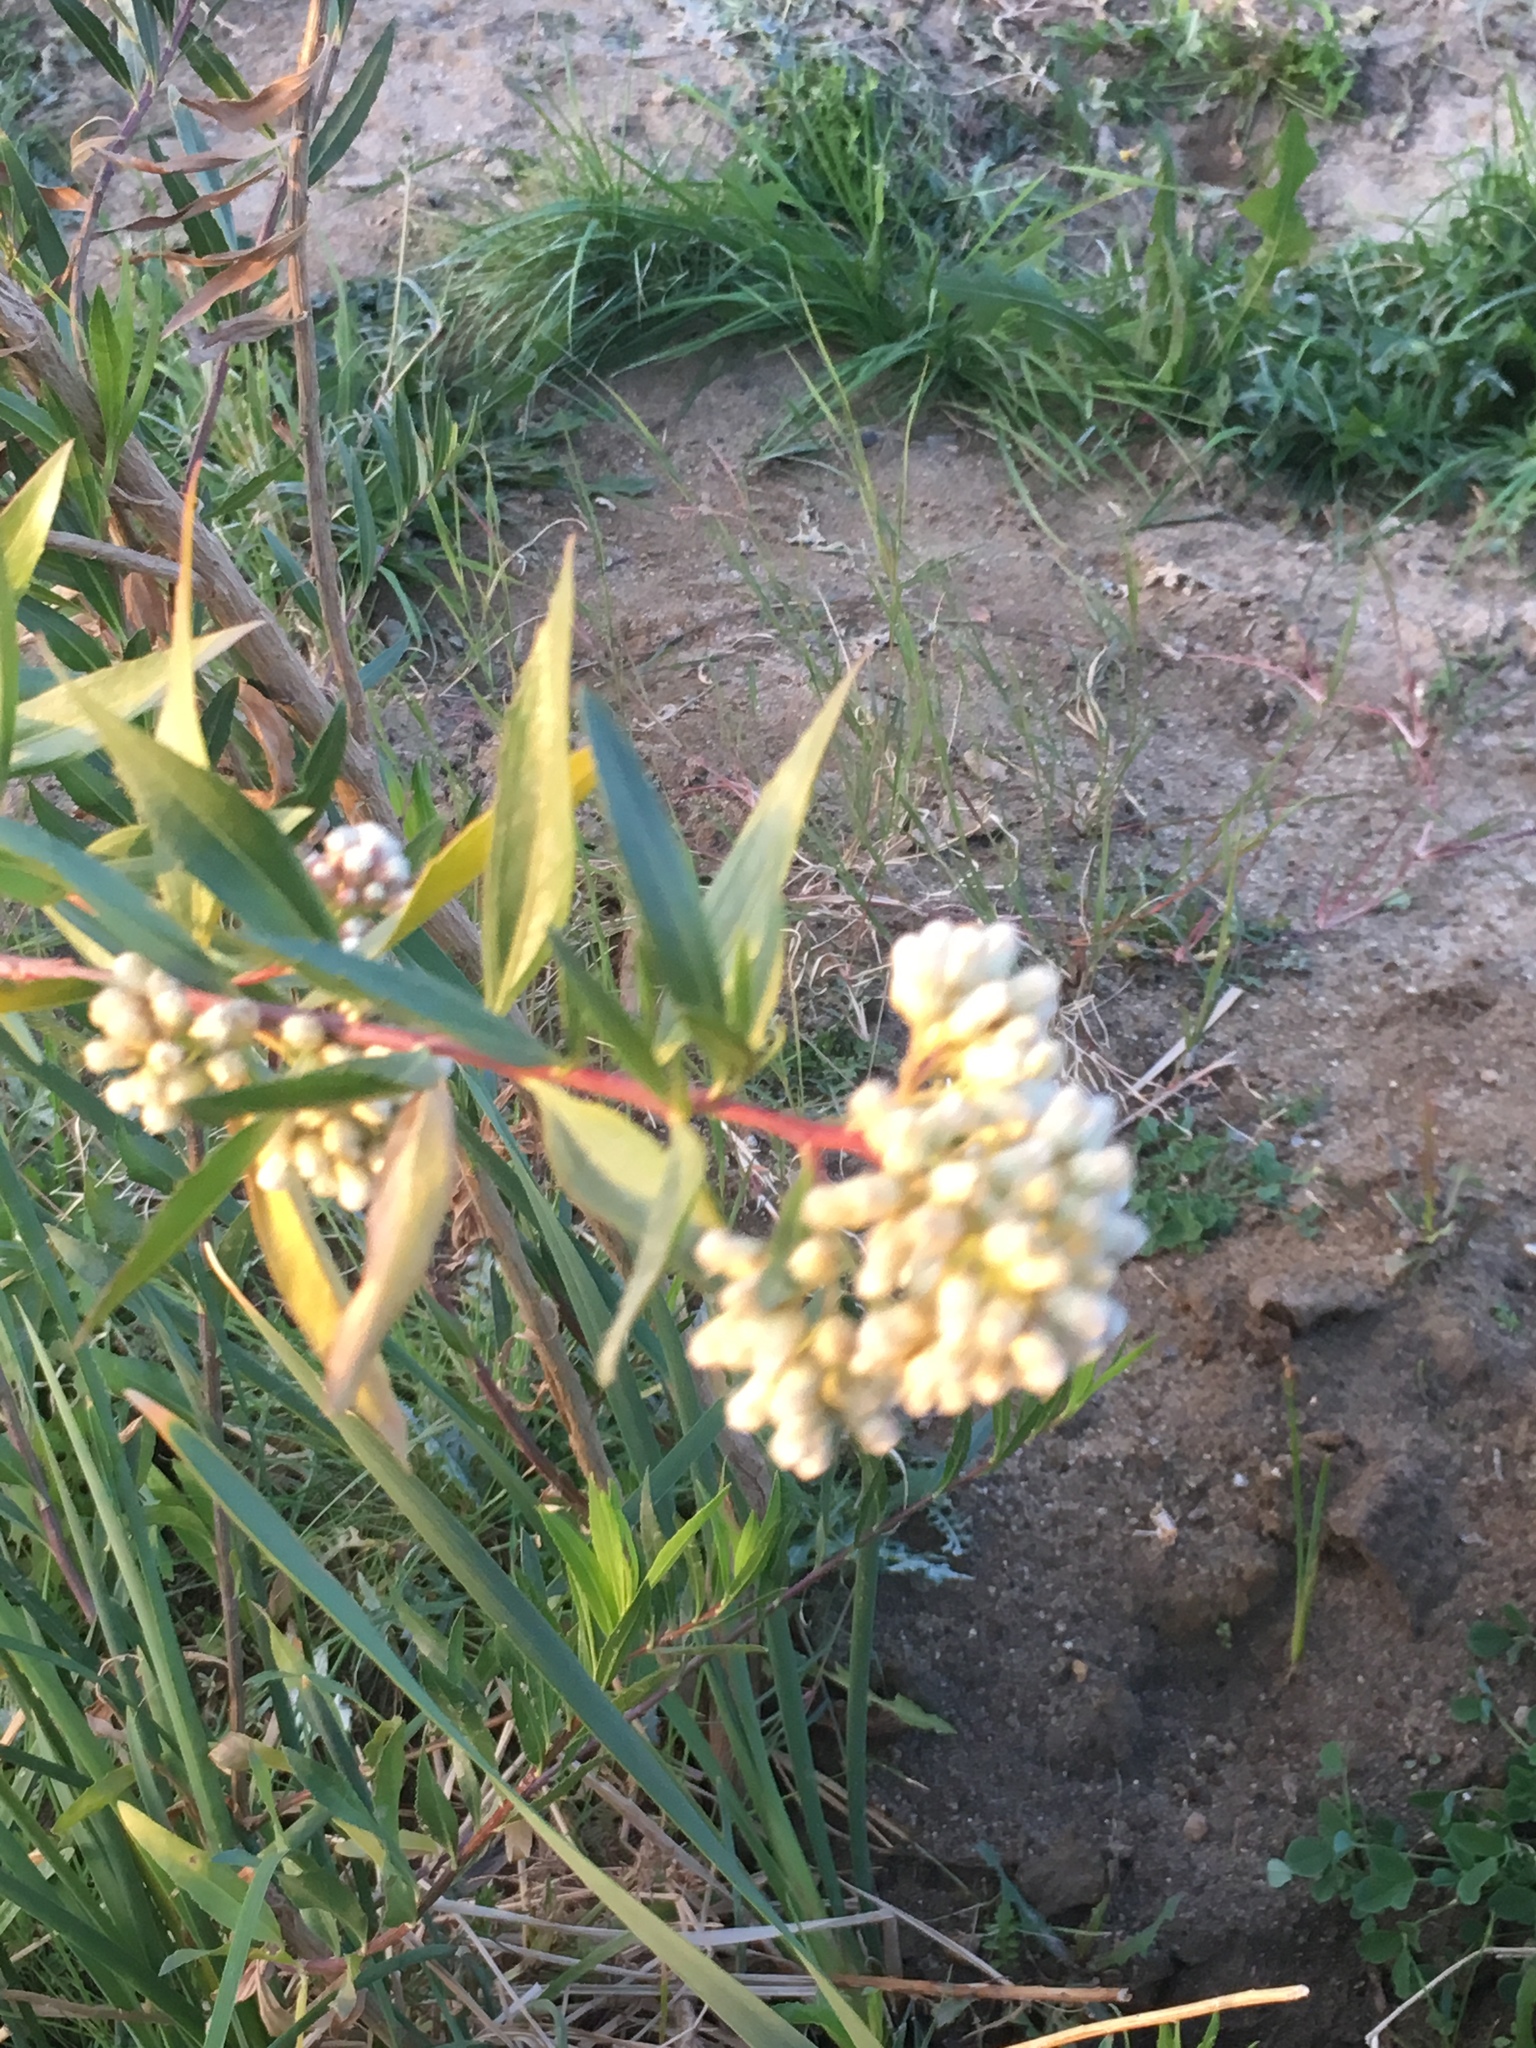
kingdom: Plantae
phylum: Tracheophyta
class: Magnoliopsida
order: Asterales
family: Asteraceae
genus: Baccharis
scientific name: Baccharis salicifolia
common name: Sticky baccharis
